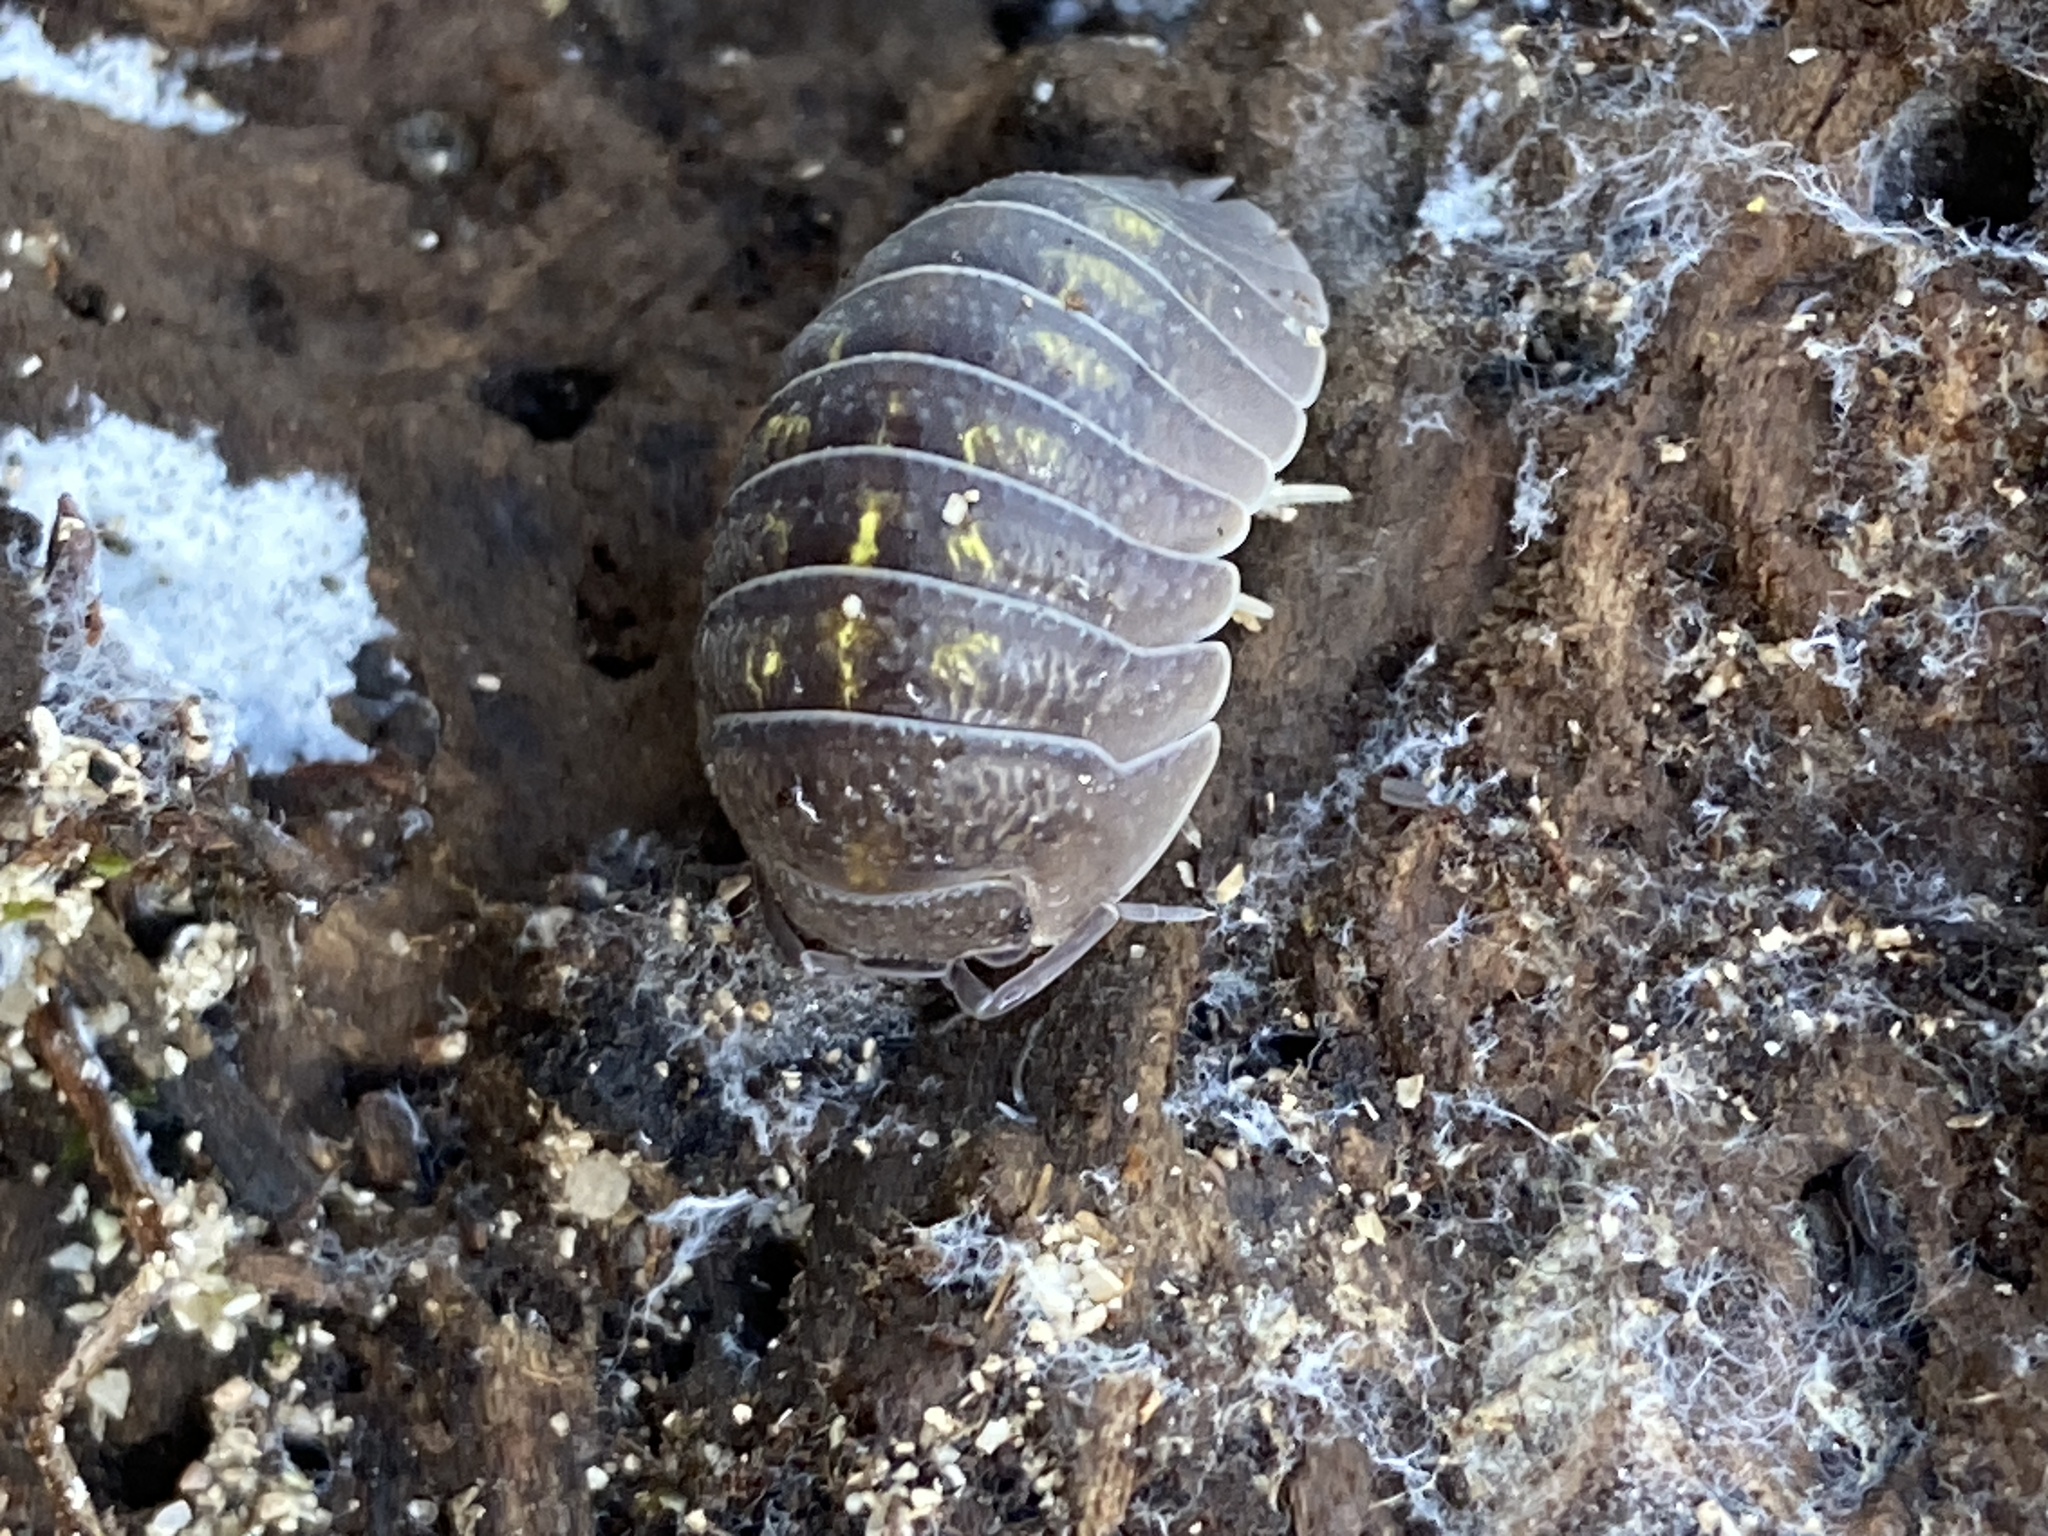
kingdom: Animalia
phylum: Arthropoda
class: Malacostraca
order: Isopoda
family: Armadillidiidae
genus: Armadillidium
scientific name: Armadillidium granulatum
